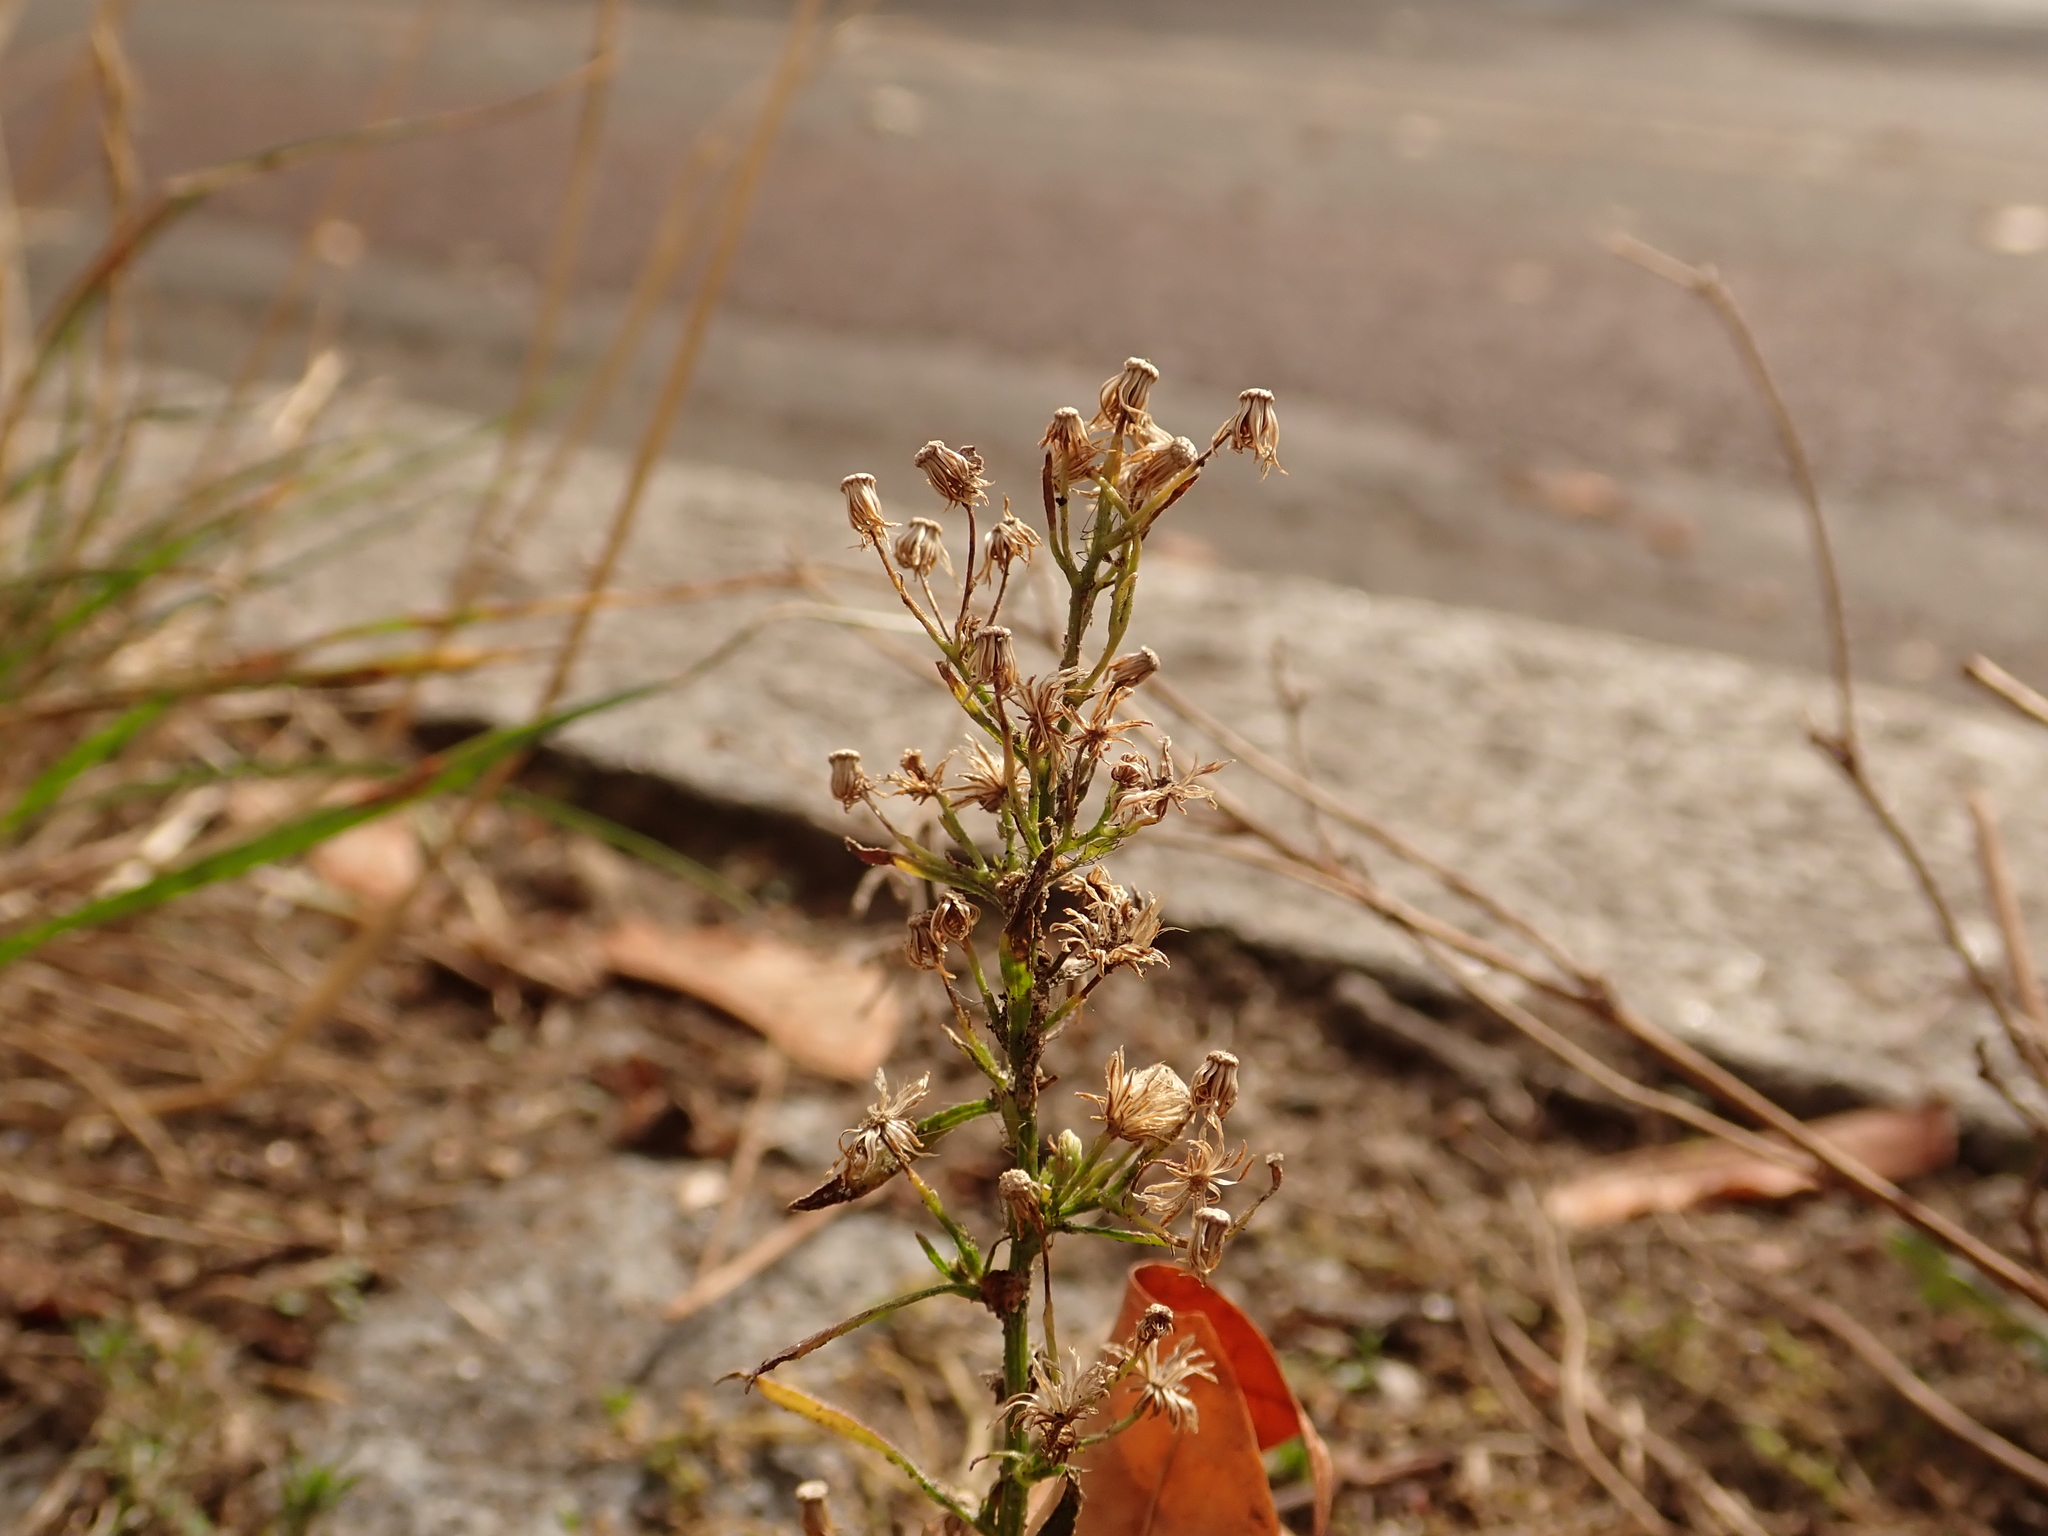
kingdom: Plantae
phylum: Tracheophyta
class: Magnoliopsida
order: Asterales
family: Asteraceae
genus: Erigeron
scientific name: Erigeron canadensis
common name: Canadian fleabane
